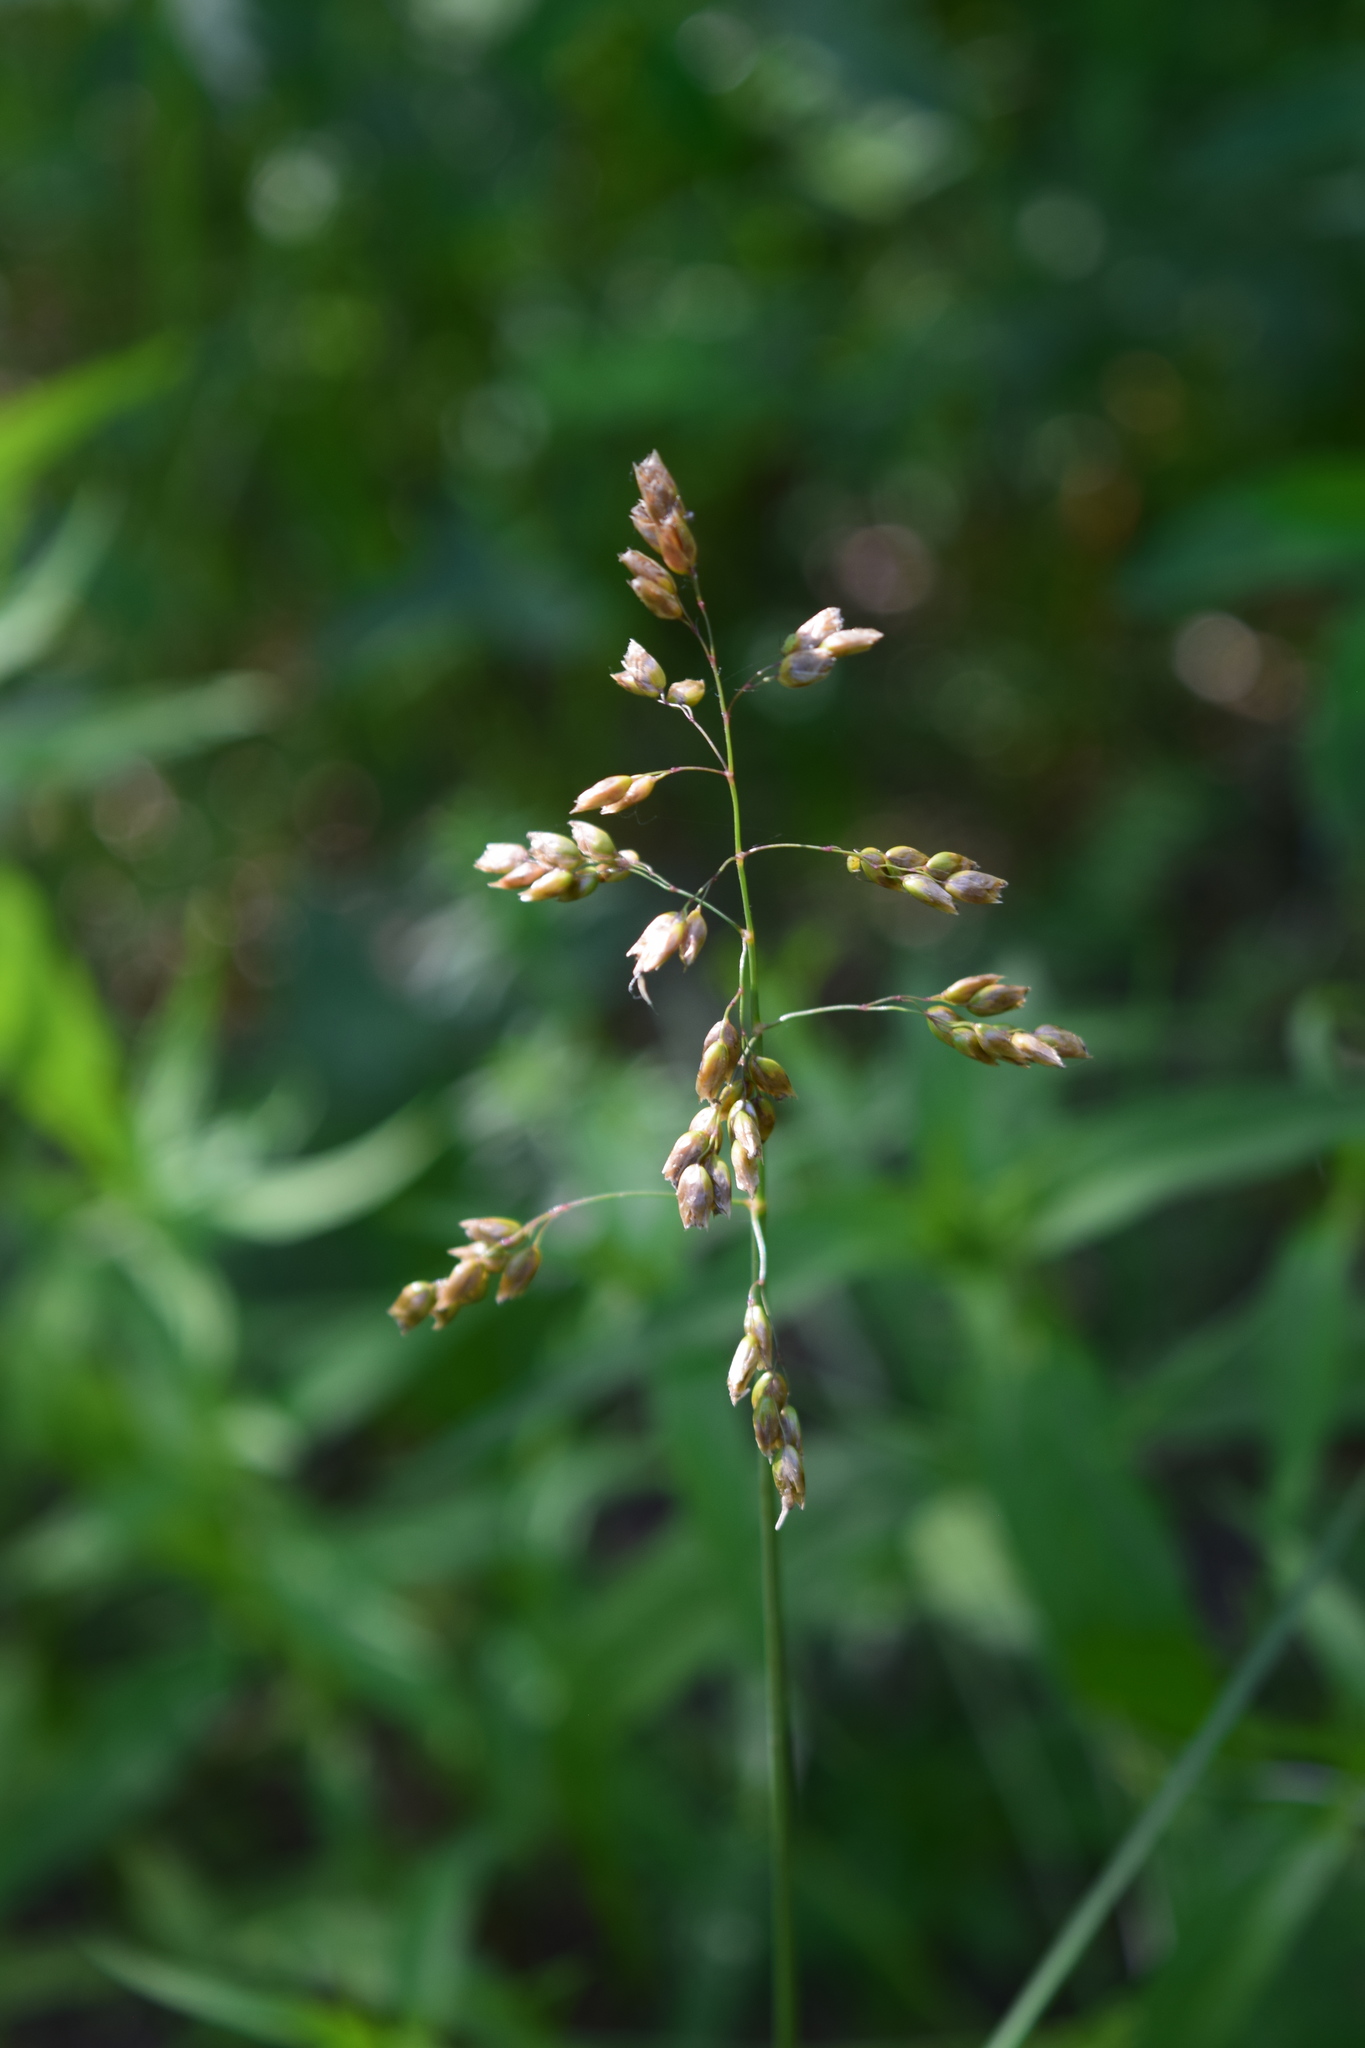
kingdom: Plantae
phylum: Tracheophyta
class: Liliopsida
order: Poales
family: Poaceae
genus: Anthoxanthum
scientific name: Anthoxanthum nitens
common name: Holy grass
